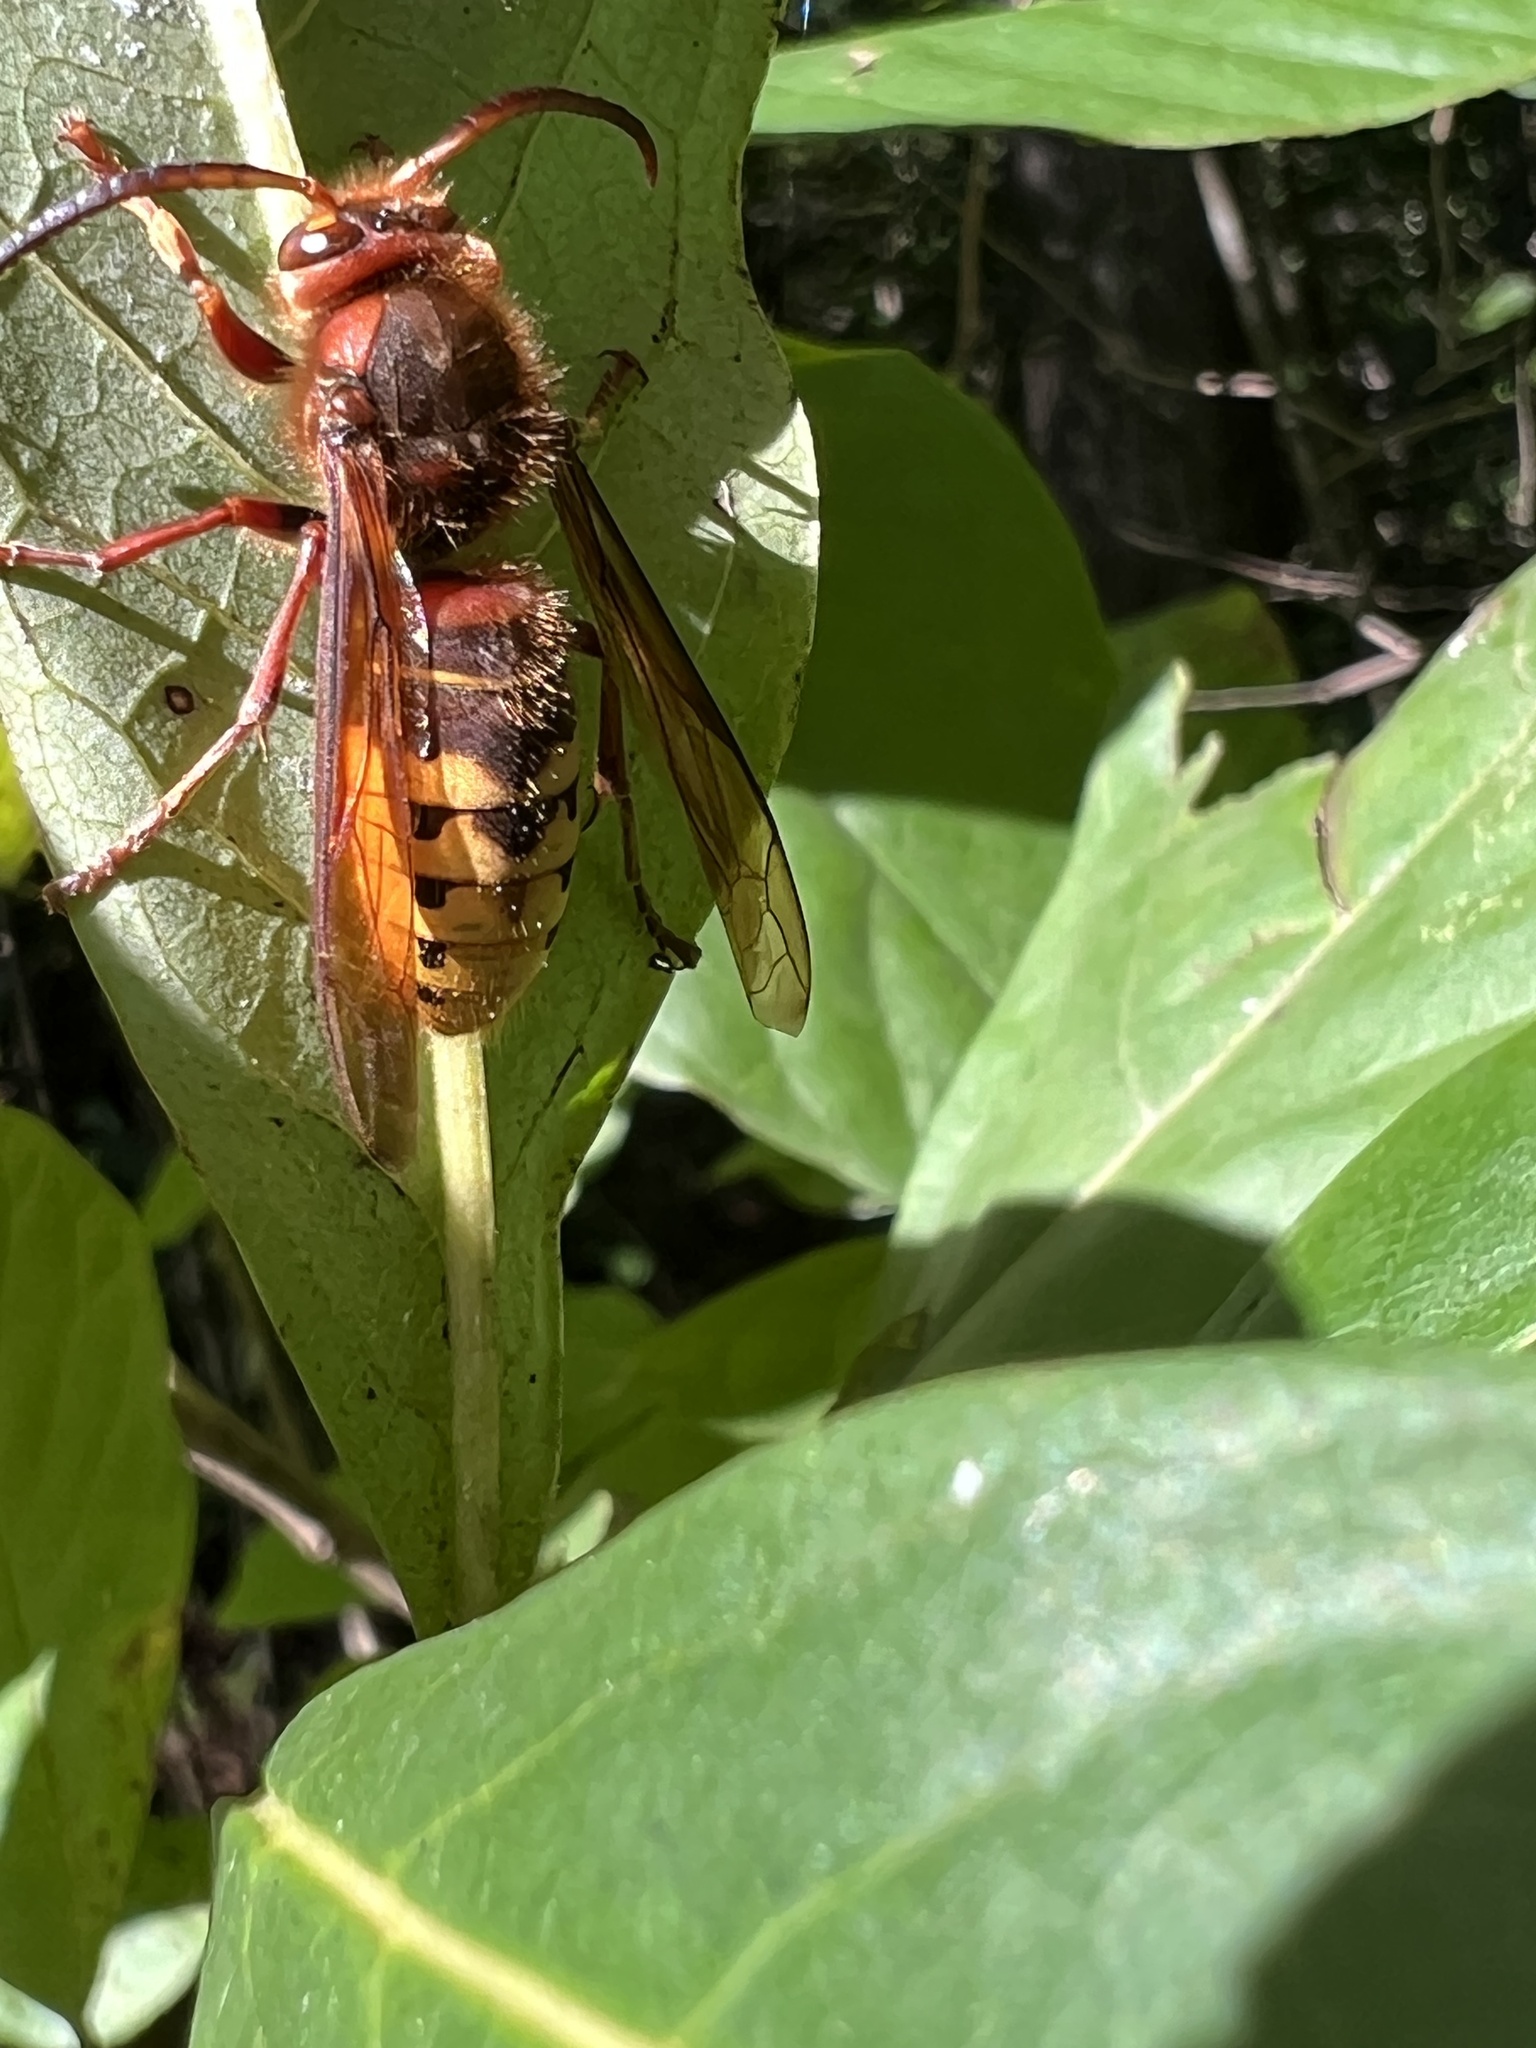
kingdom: Animalia
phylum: Arthropoda
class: Insecta
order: Hymenoptera
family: Vespidae
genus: Vespa
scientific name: Vespa crabro
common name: Hornet
